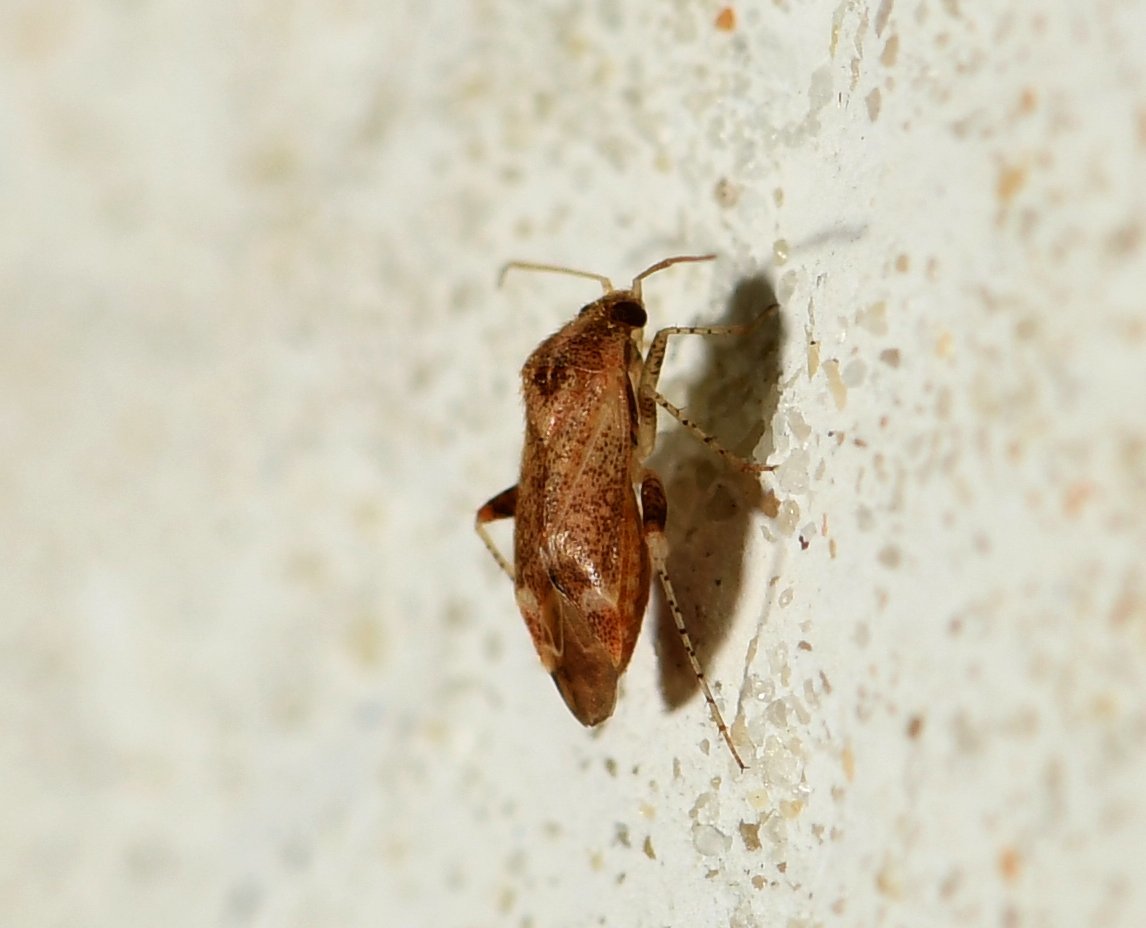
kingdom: Animalia
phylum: Arthropoda
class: Insecta
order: Hemiptera
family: Miridae
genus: Hamatophylus
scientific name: Hamatophylus guttulosus
